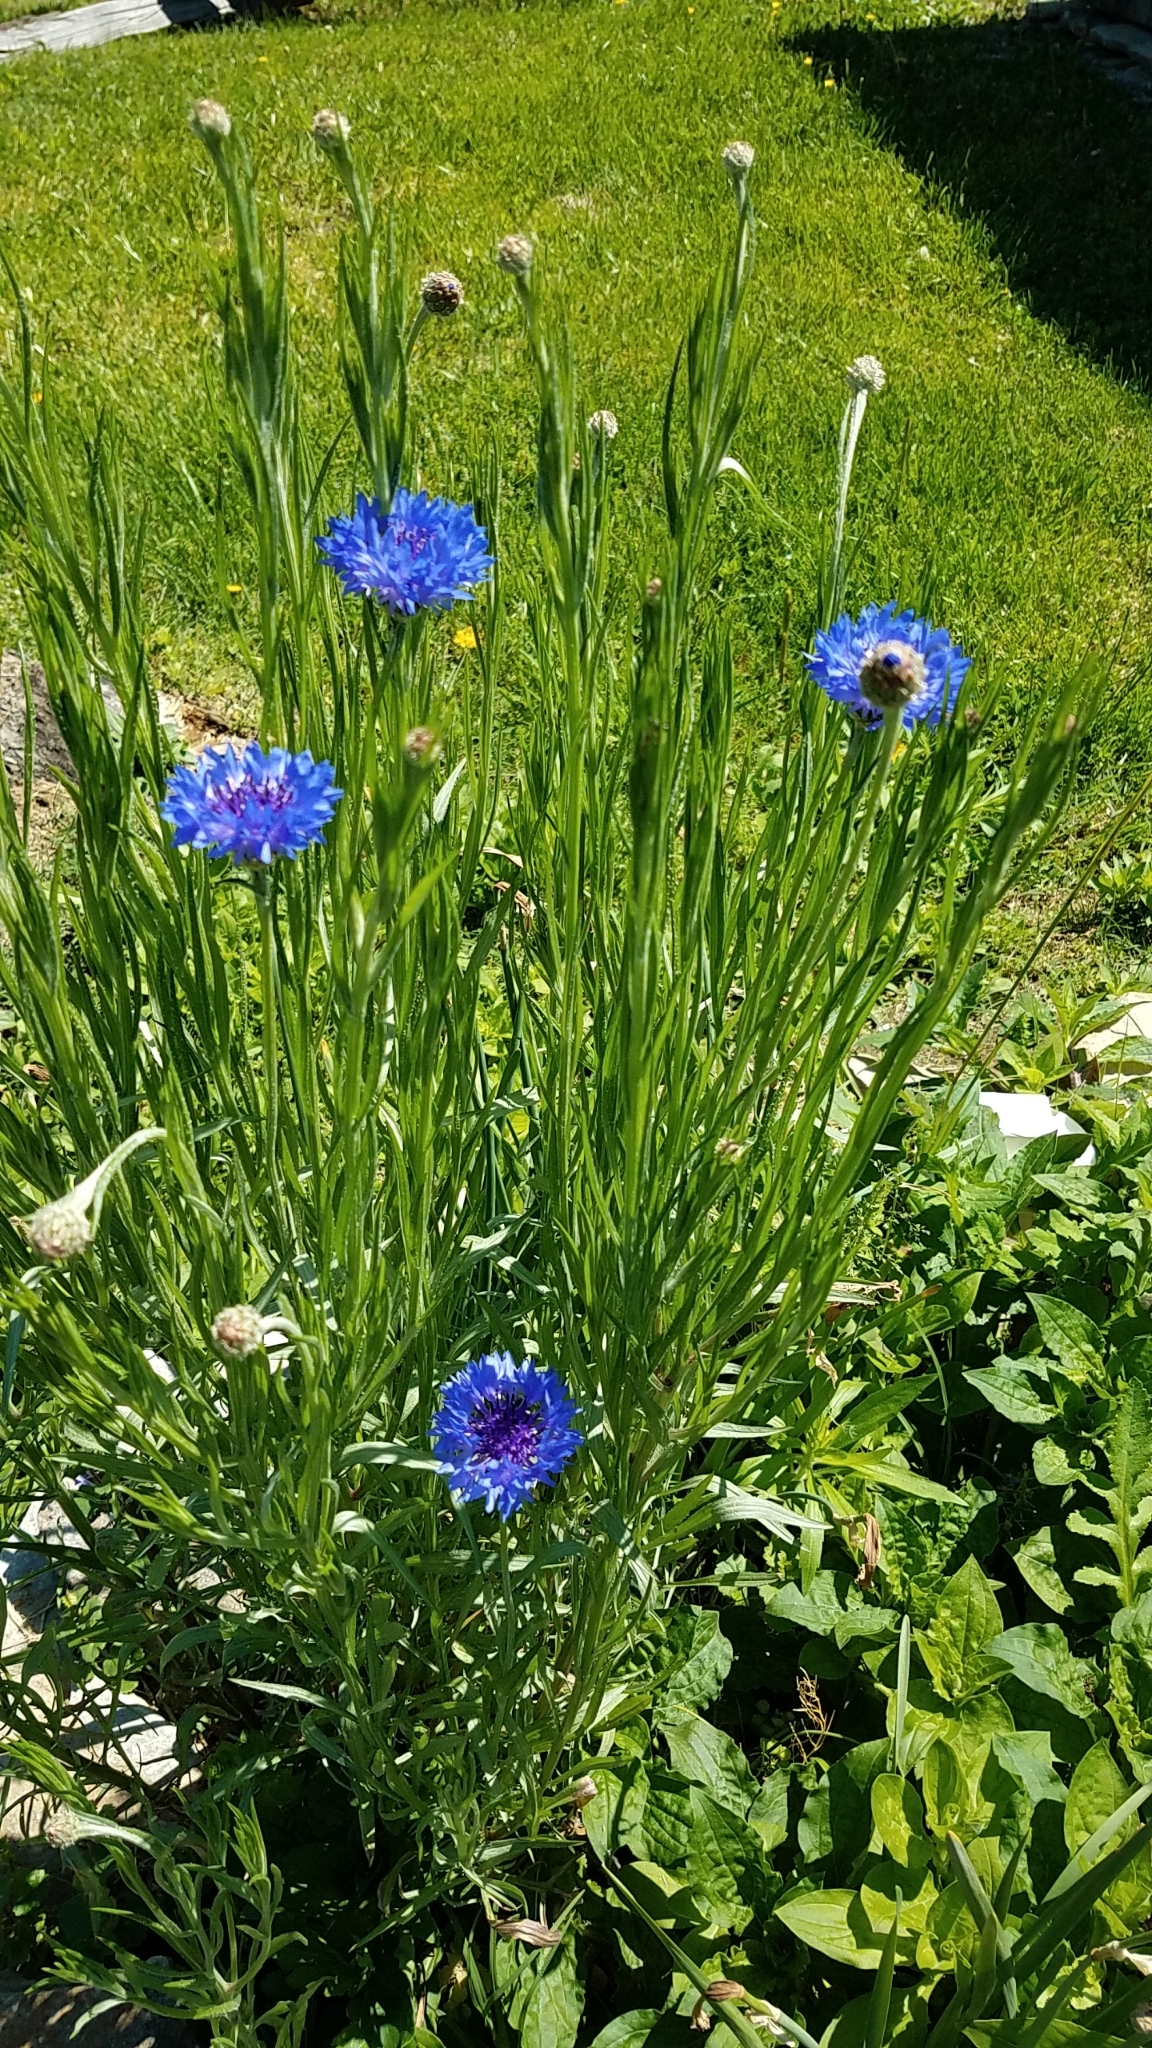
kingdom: Plantae
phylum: Tracheophyta
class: Magnoliopsida
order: Asterales
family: Asteraceae
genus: Centaurea
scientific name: Centaurea cyanus
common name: Cornflower
